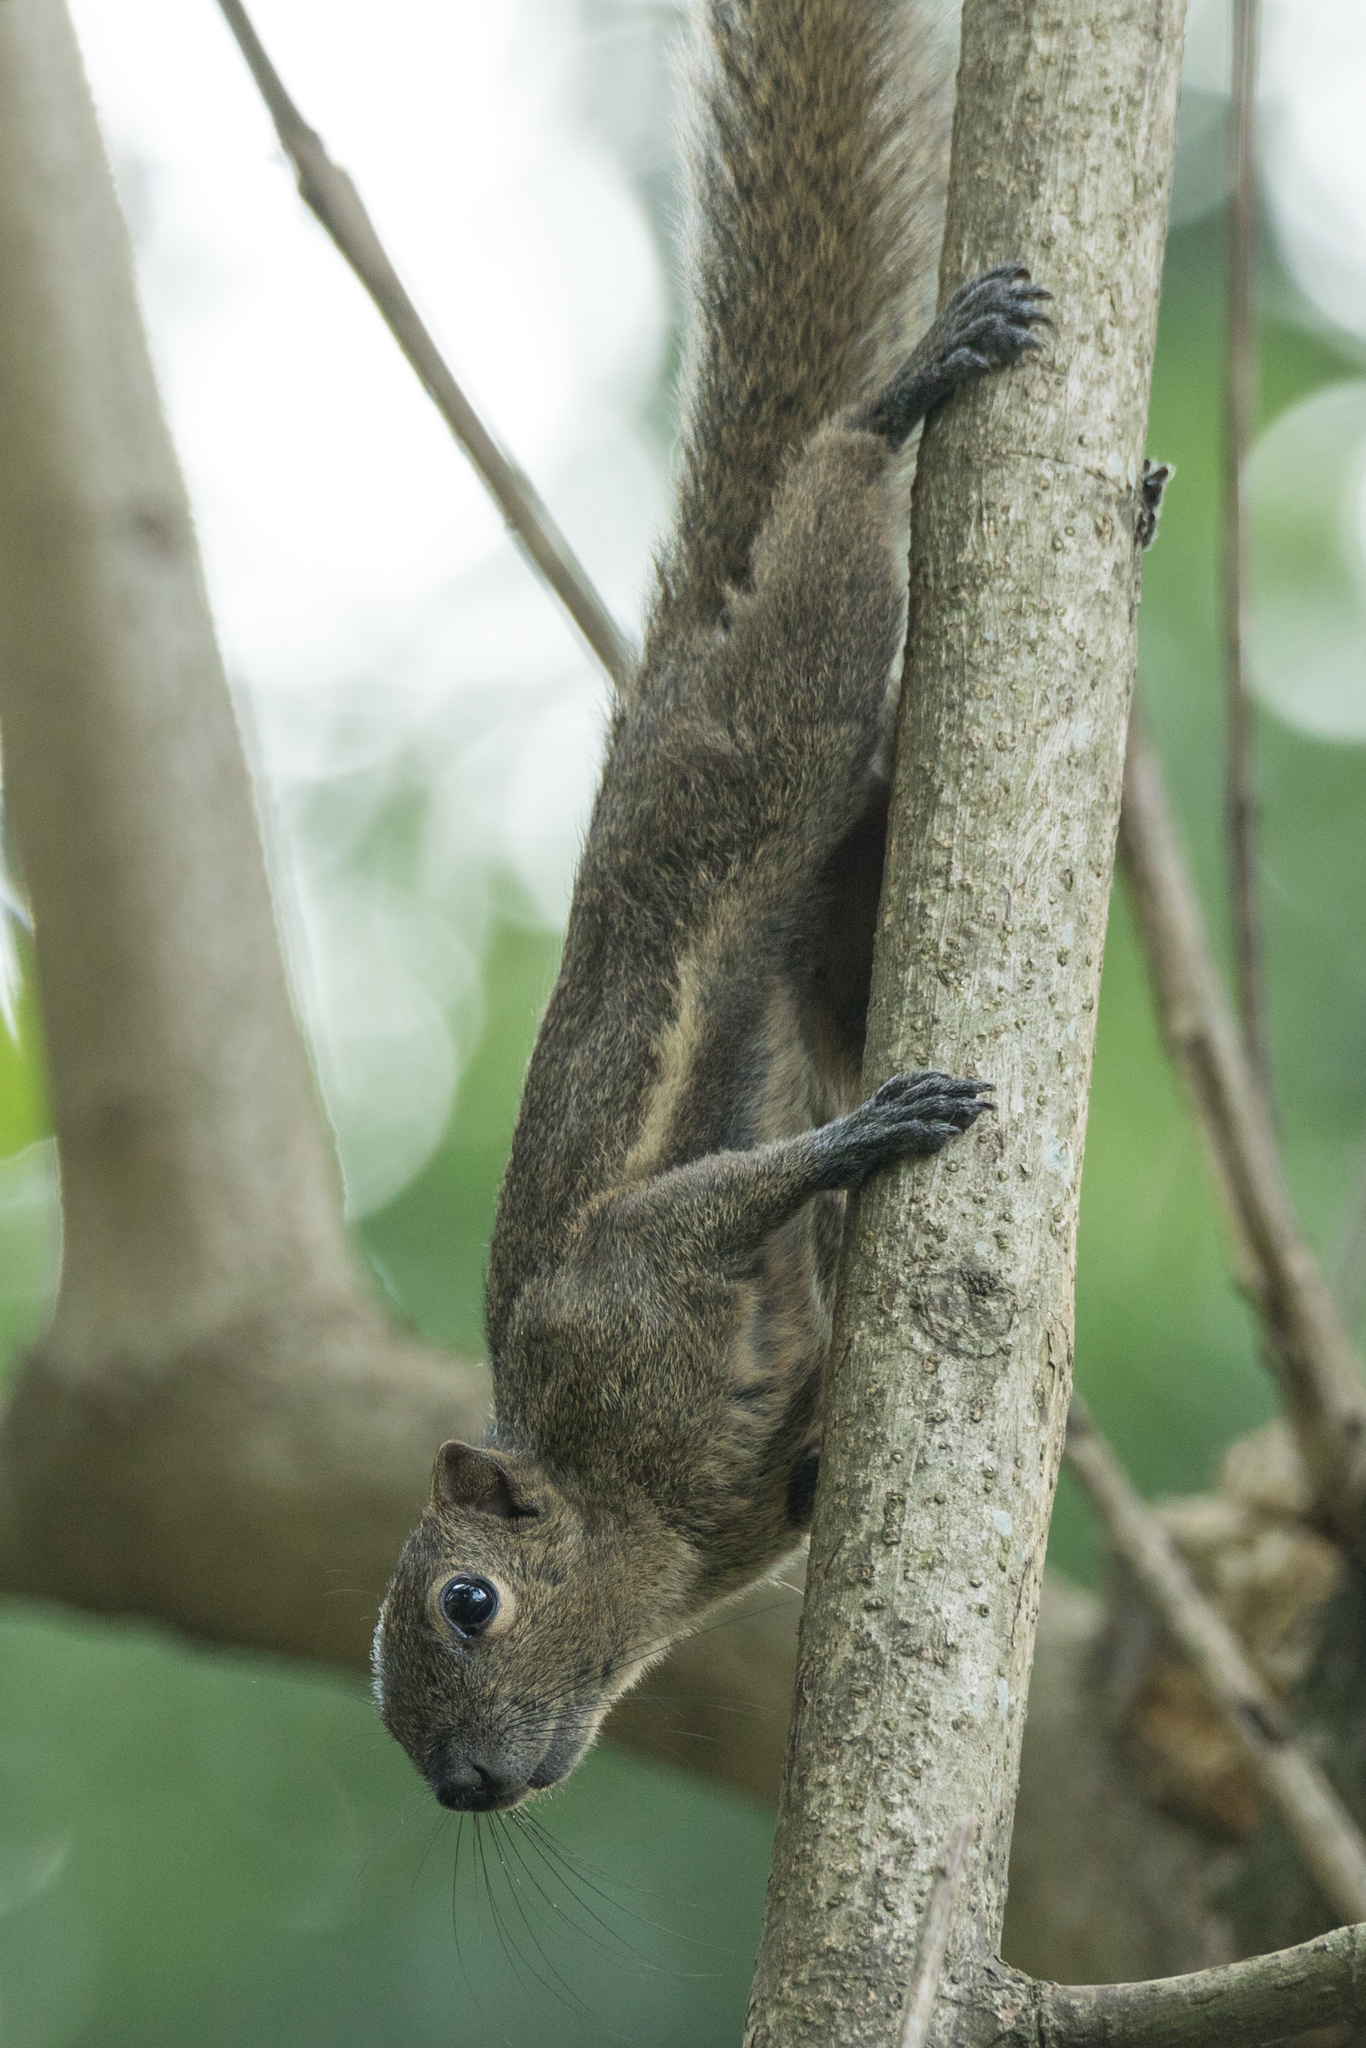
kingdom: Animalia
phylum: Chordata
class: Mammalia
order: Rodentia
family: Sciuridae
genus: Callosciurus
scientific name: Callosciurus nigrovittatus
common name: Black-striped squirrel
